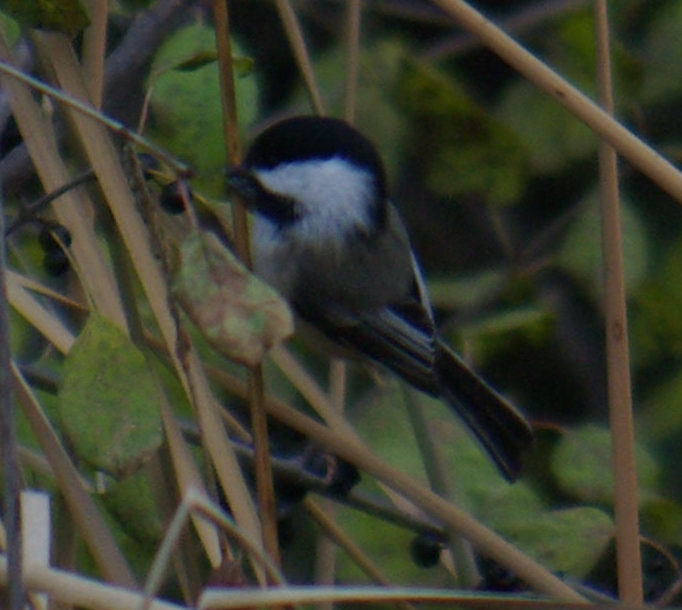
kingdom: Animalia
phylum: Chordata
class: Aves
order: Passeriformes
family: Paridae
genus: Poecile
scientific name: Poecile atricapillus
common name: Black-capped chickadee
